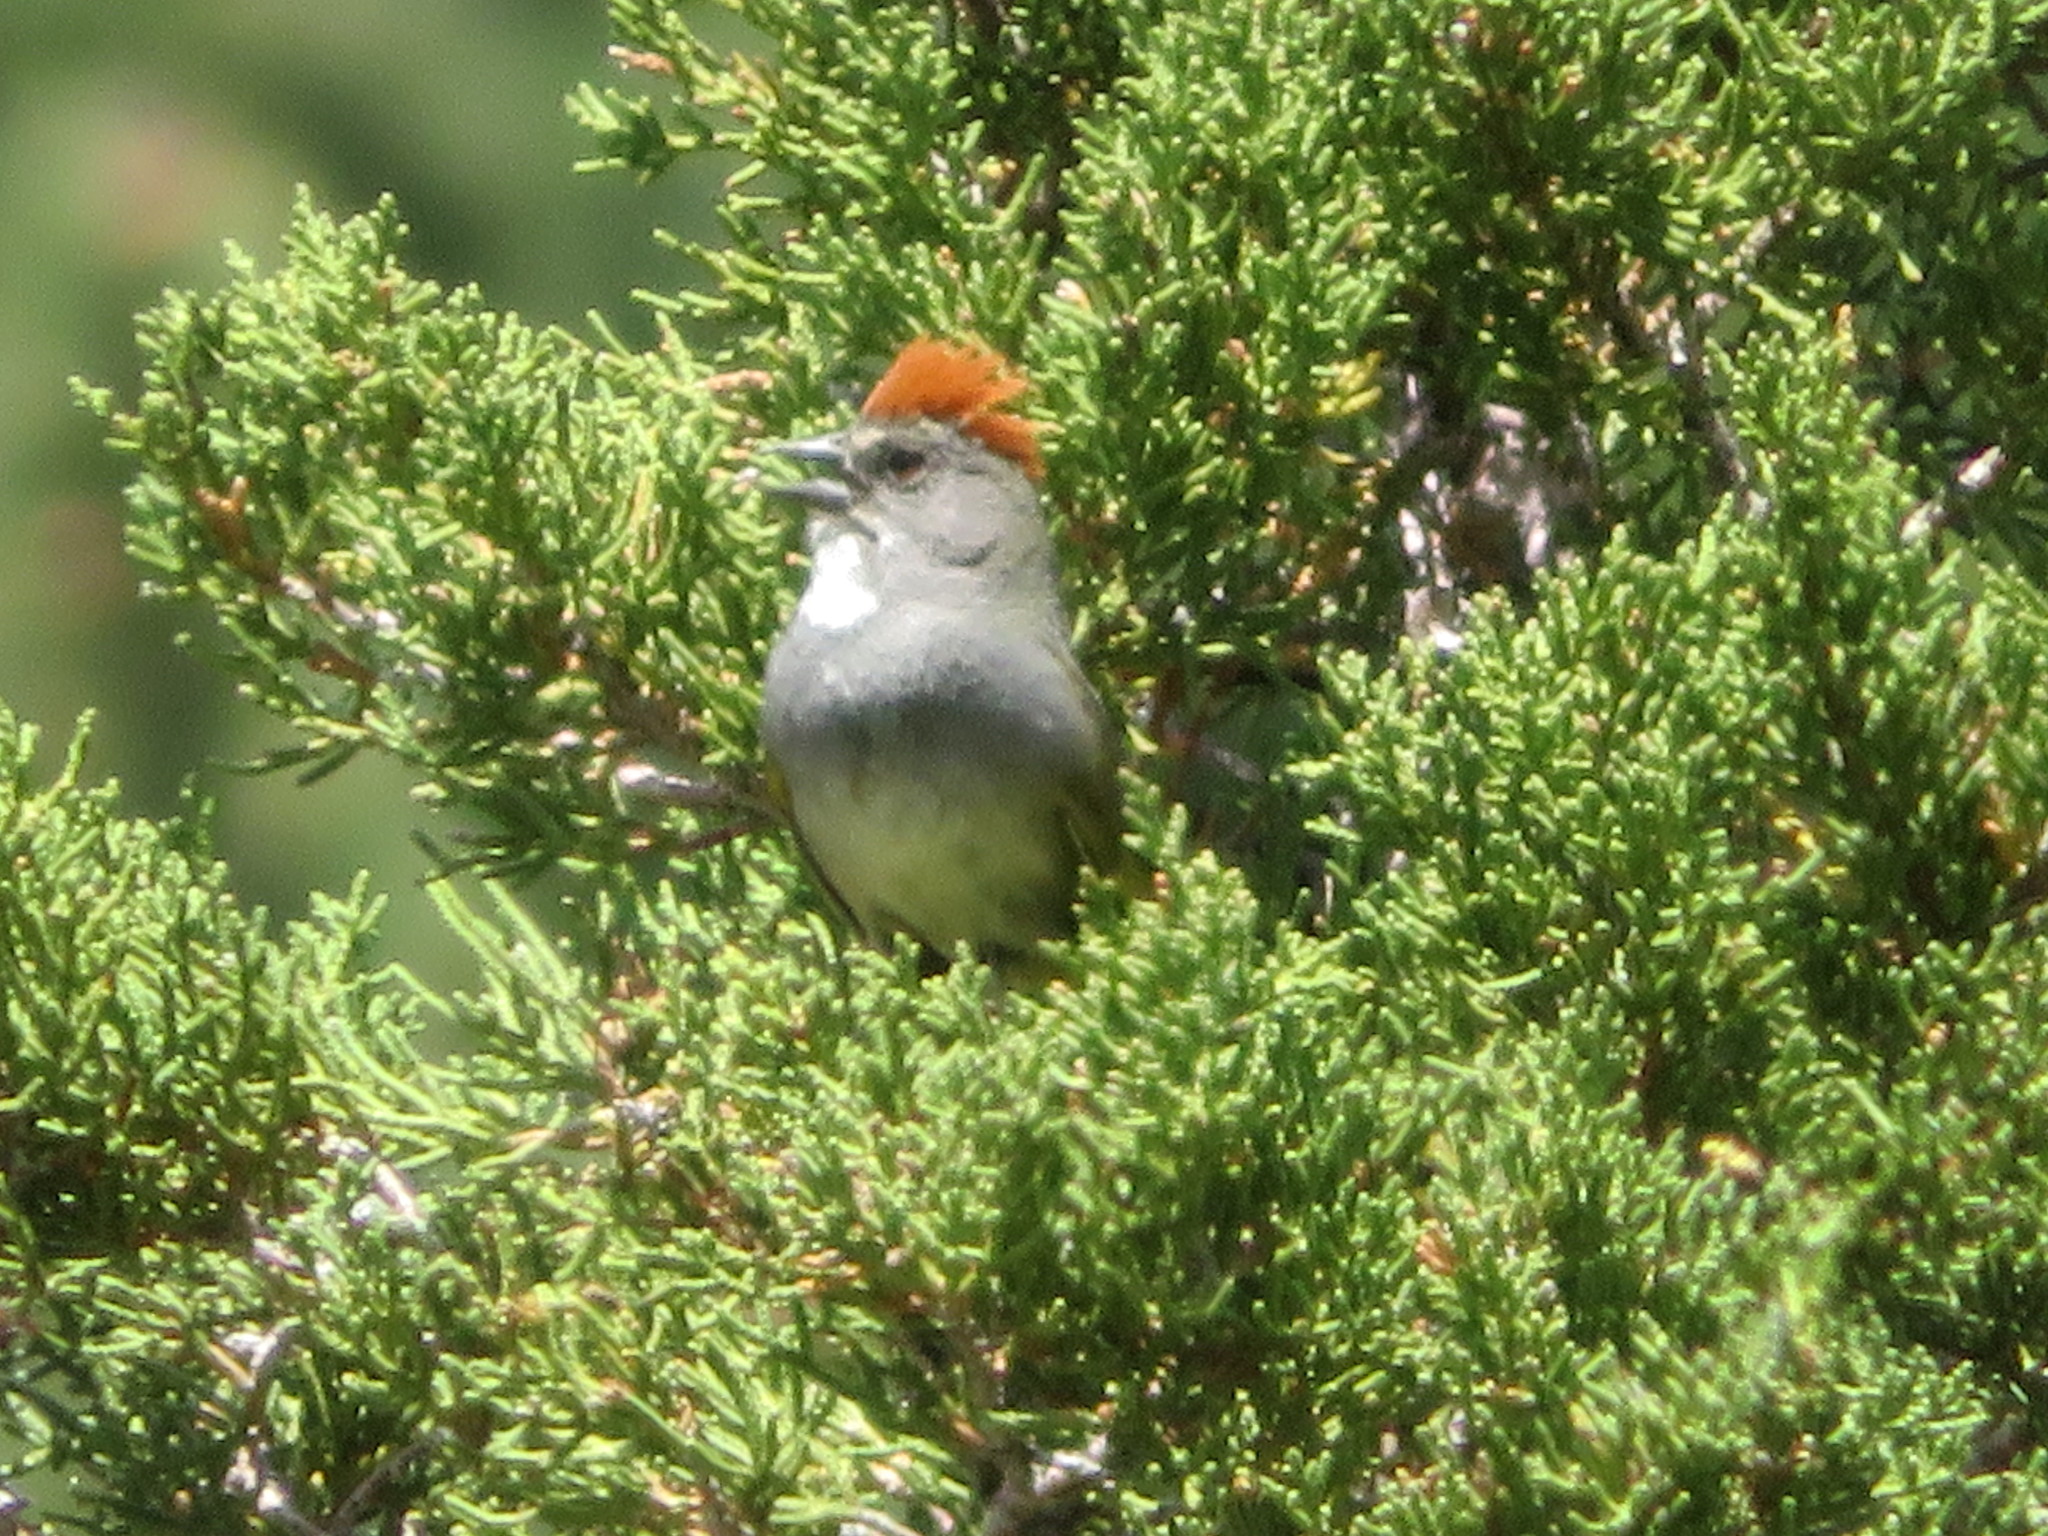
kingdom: Animalia
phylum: Chordata
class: Aves
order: Passeriformes
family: Passerellidae
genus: Pipilo
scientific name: Pipilo chlorurus
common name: Green-tailed towhee
